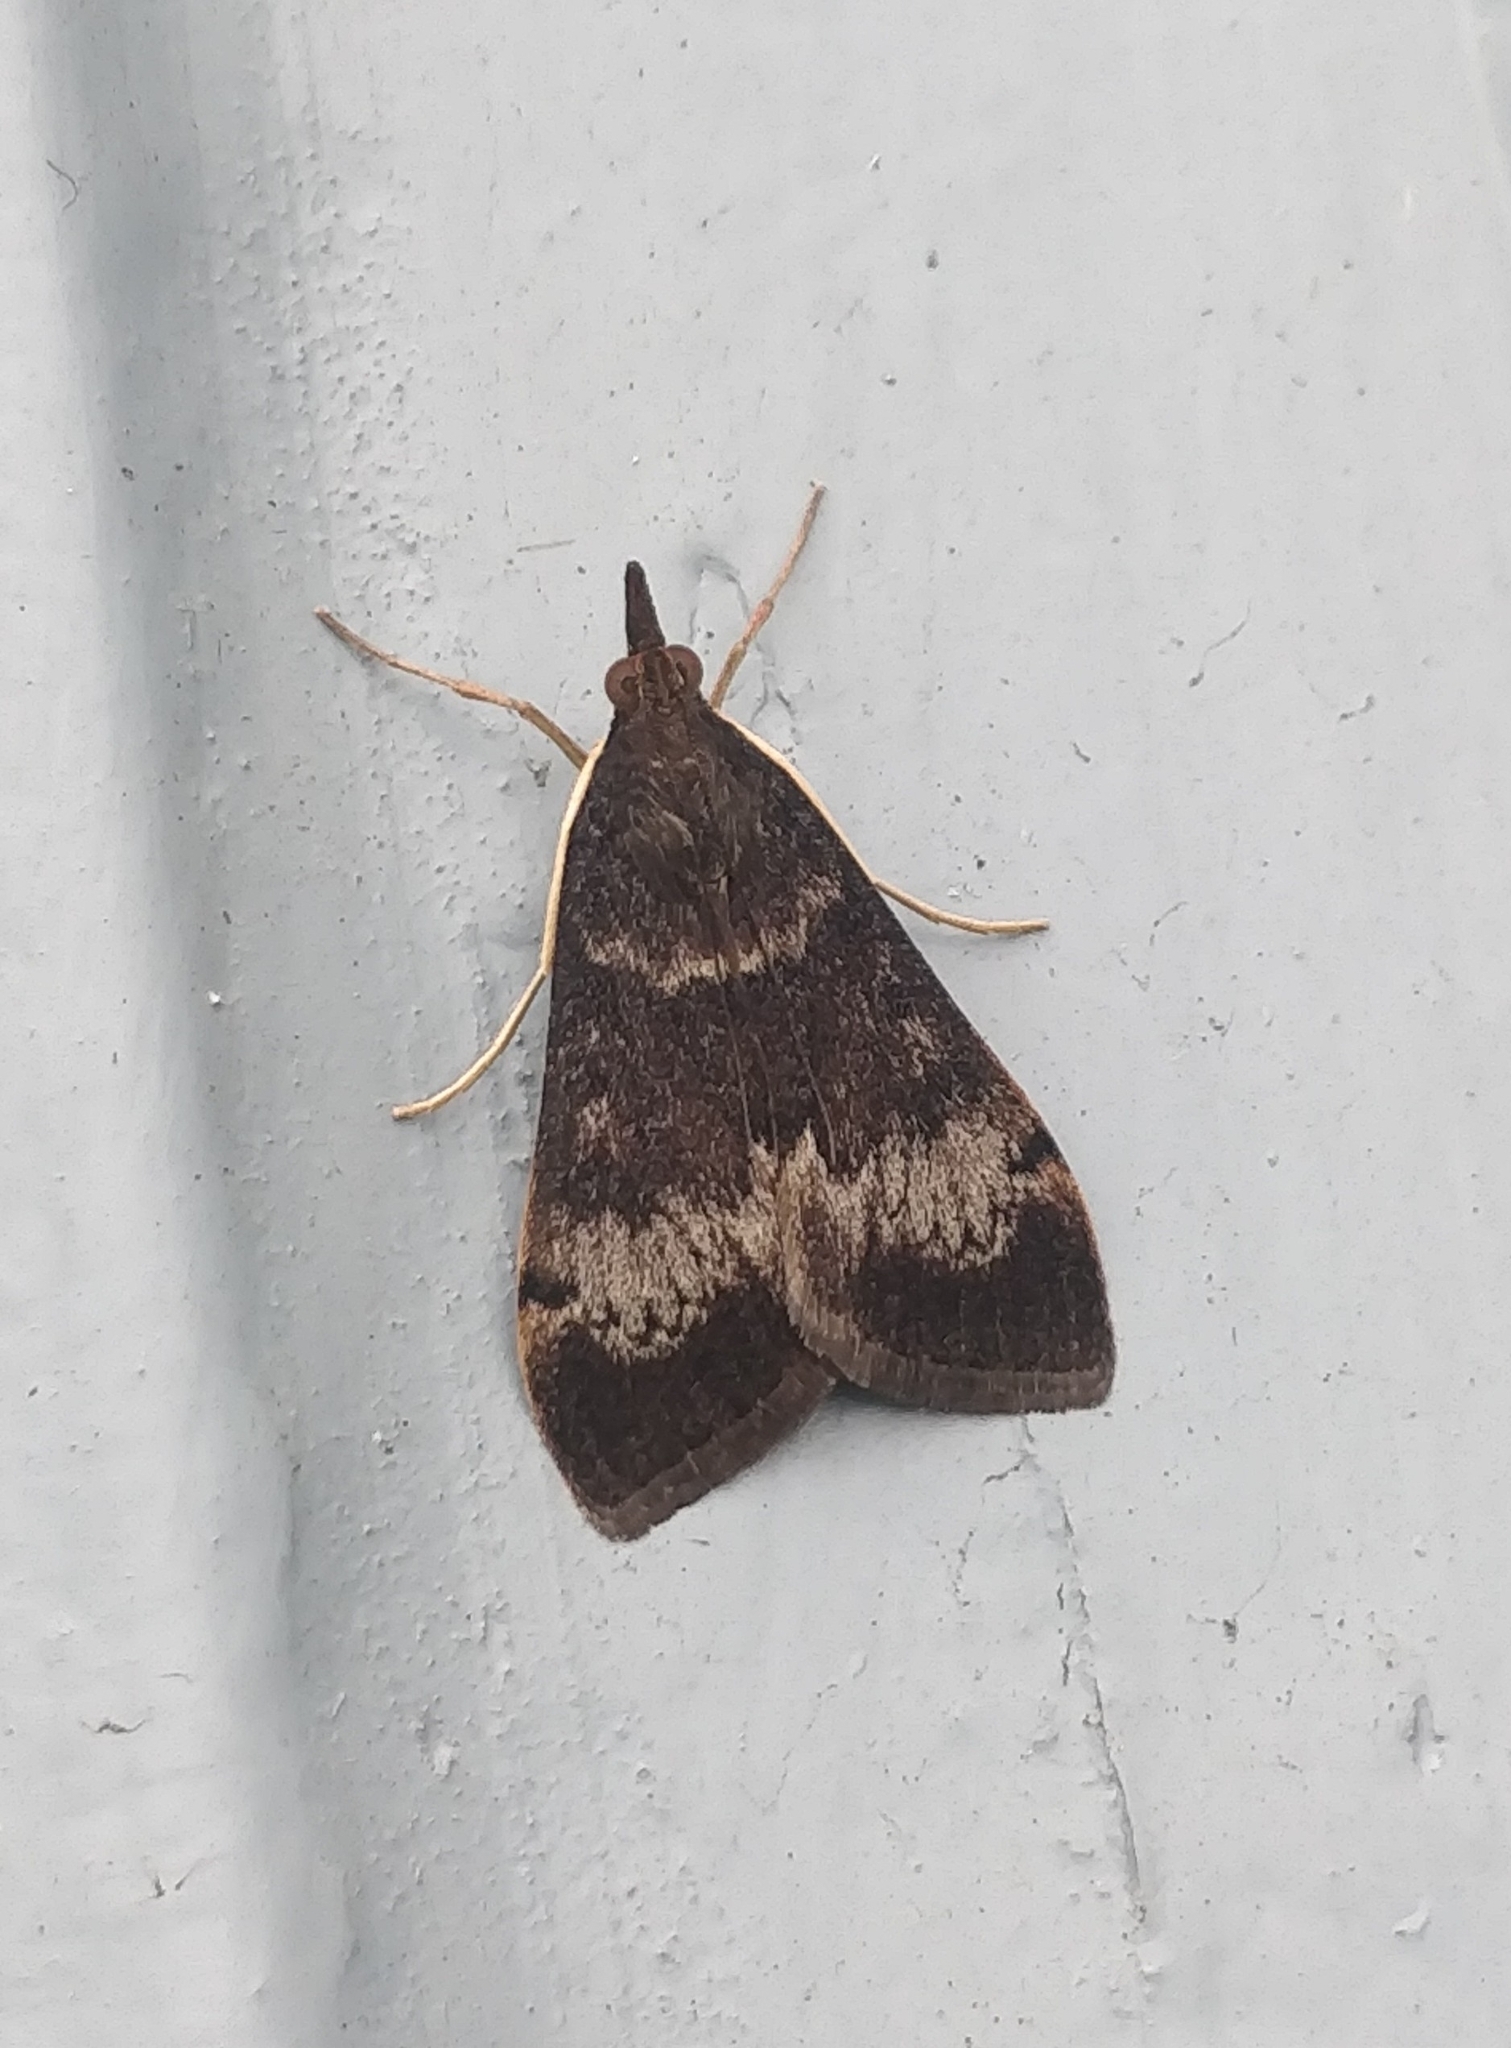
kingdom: Animalia
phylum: Arthropoda
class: Insecta
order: Lepidoptera
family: Crambidae
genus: Uresiphita
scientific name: Uresiphita gilvata
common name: Yellow-underwing pearl
